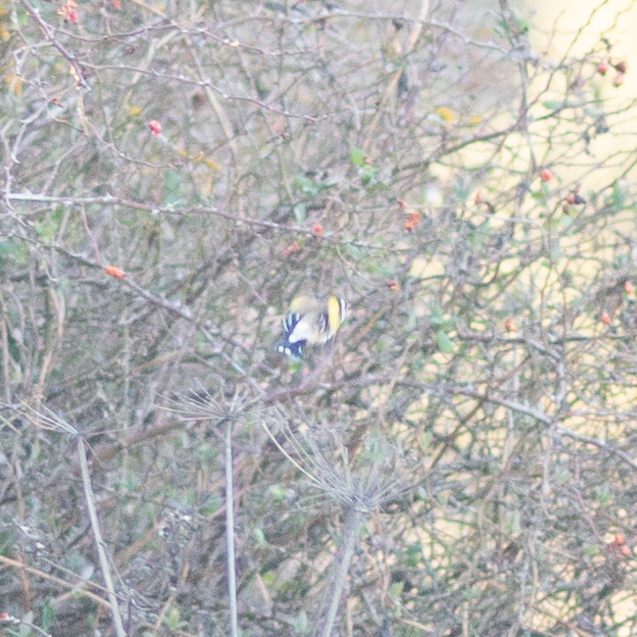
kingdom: Animalia
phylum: Chordata
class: Aves
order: Passeriformes
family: Fringillidae
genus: Carduelis
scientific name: Carduelis carduelis
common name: European goldfinch
